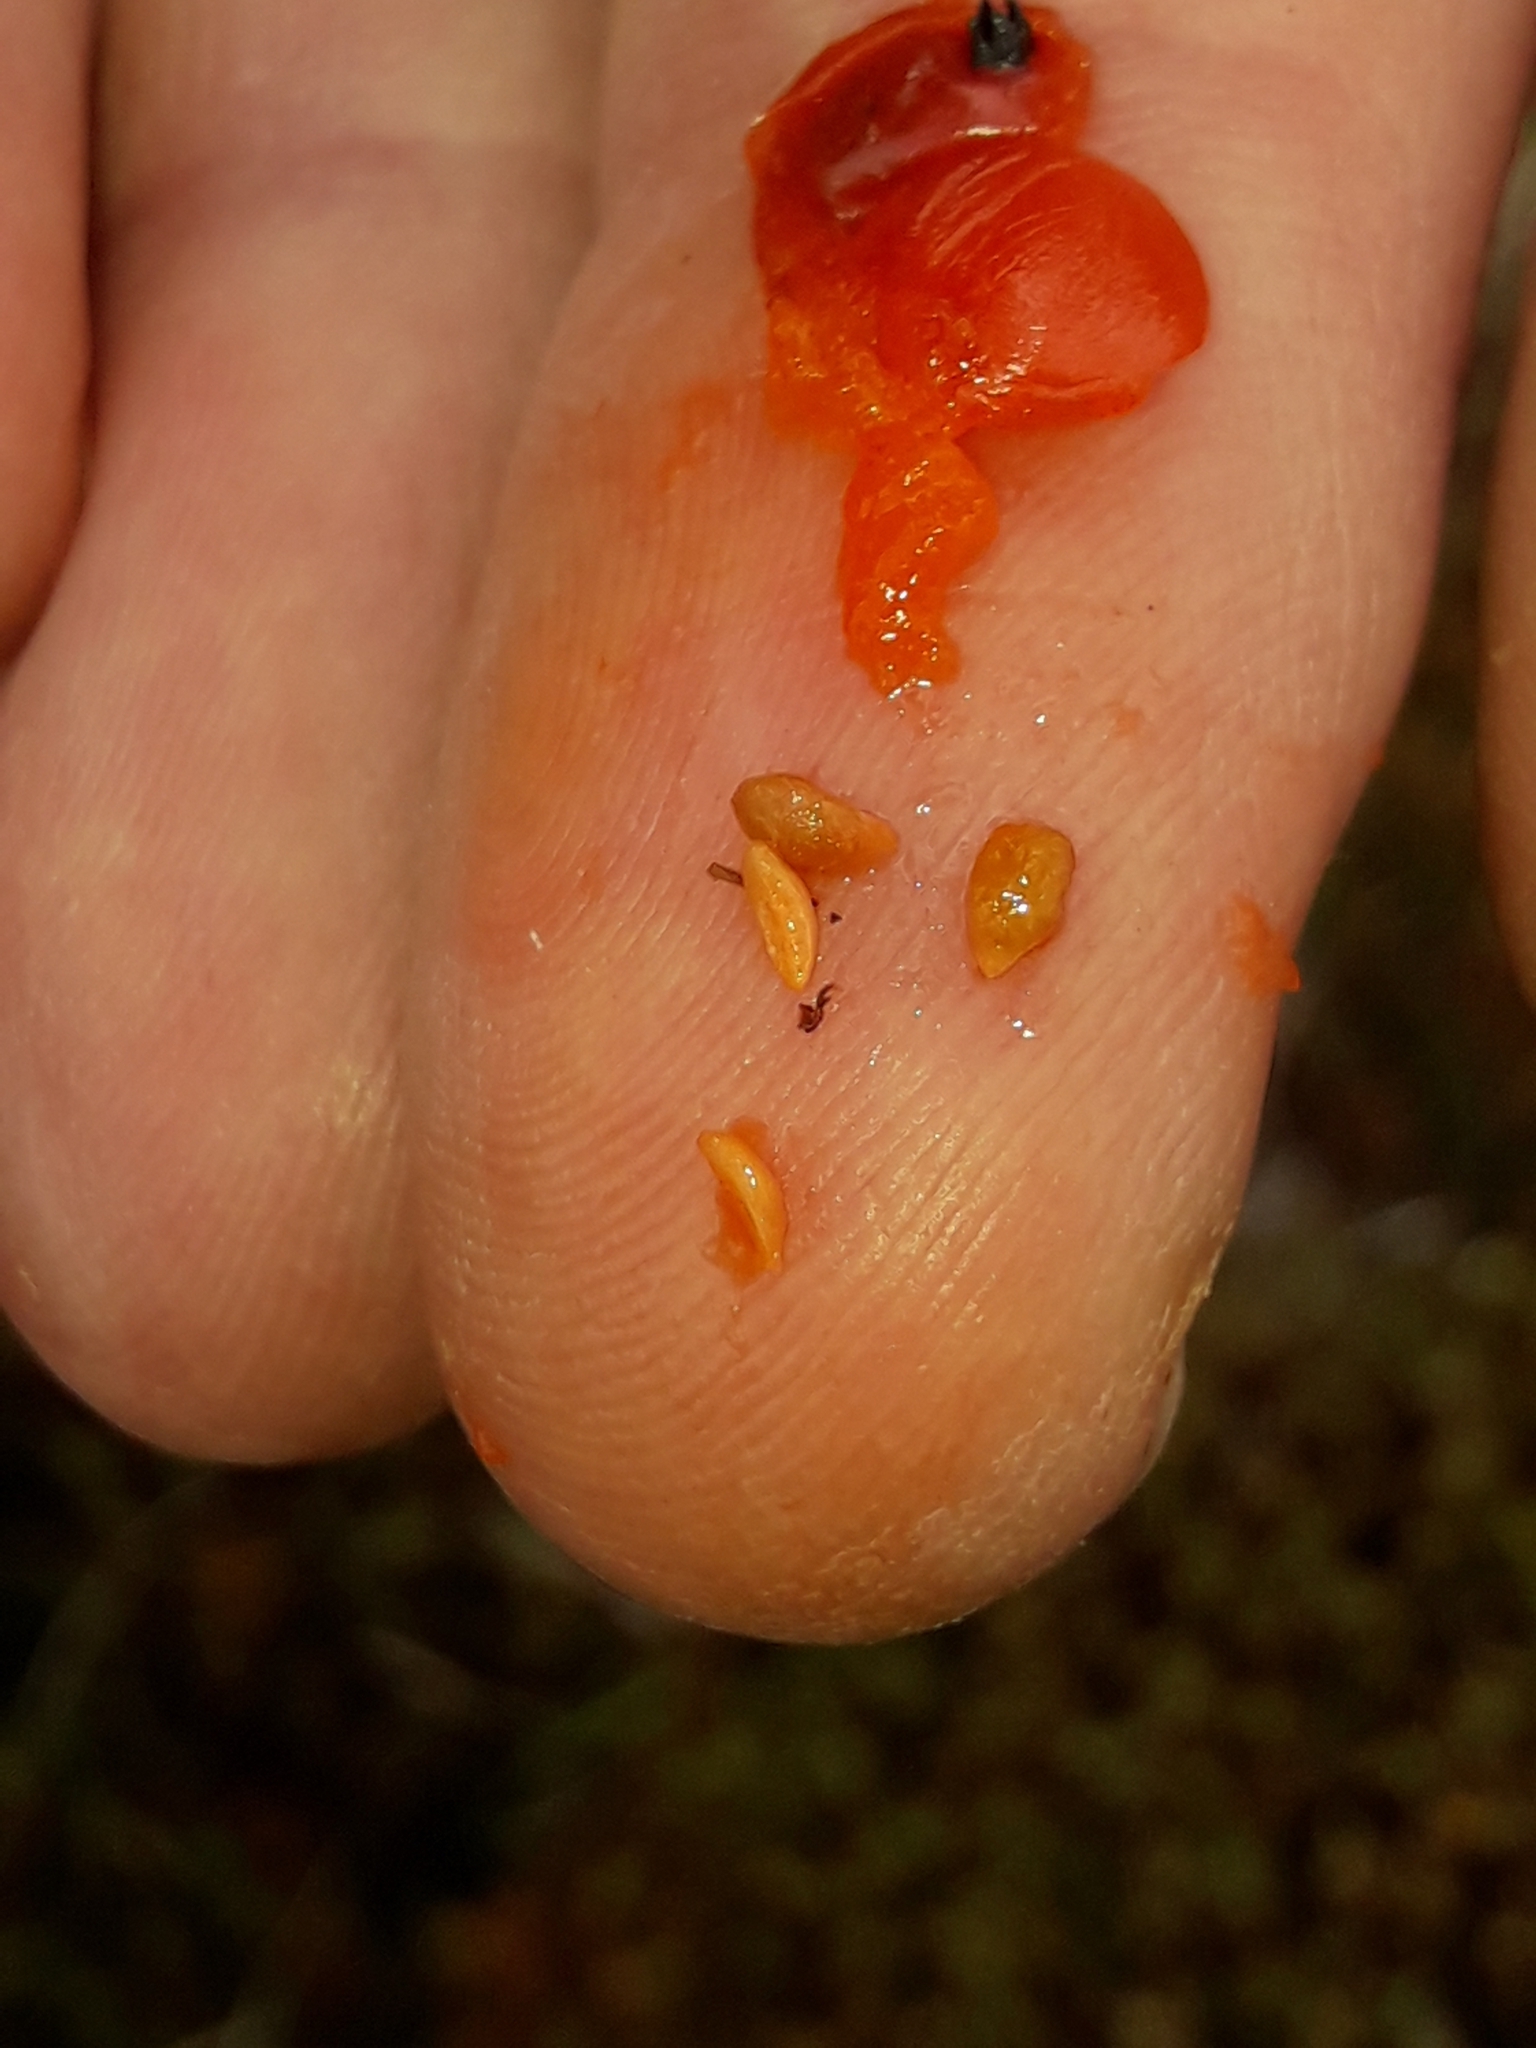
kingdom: Plantae
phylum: Tracheophyta
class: Magnoliopsida
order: Gentianales
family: Rubiaceae
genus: Coprosma
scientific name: Coprosma perpusilla
